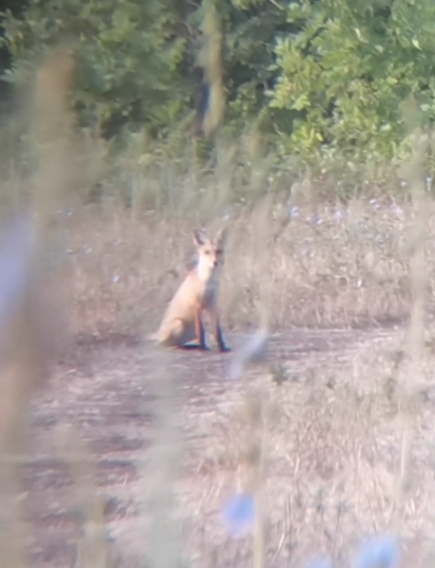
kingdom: Animalia
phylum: Chordata
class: Mammalia
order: Carnivora
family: Canidae
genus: Vulpes
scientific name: Vulpes vulpes
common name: Red fox
